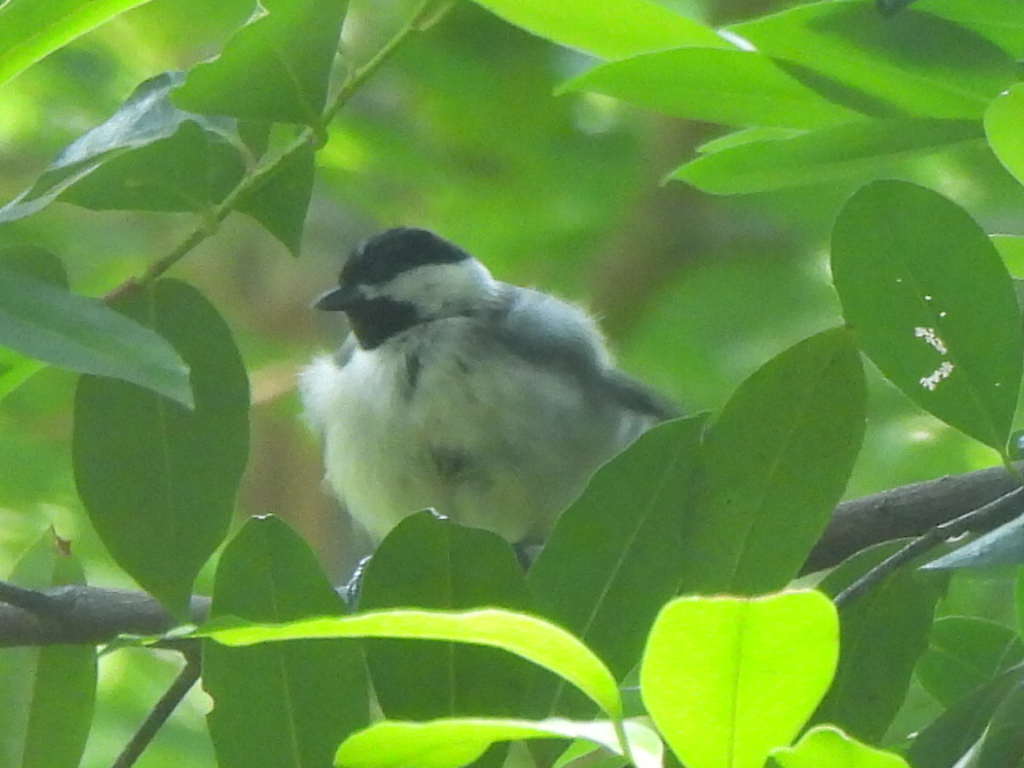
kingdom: Animalia
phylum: Chordata
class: Aves
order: Passeriformes
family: Paridae
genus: Poecile
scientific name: Poecile carolinensis
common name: Carolina chickadee
